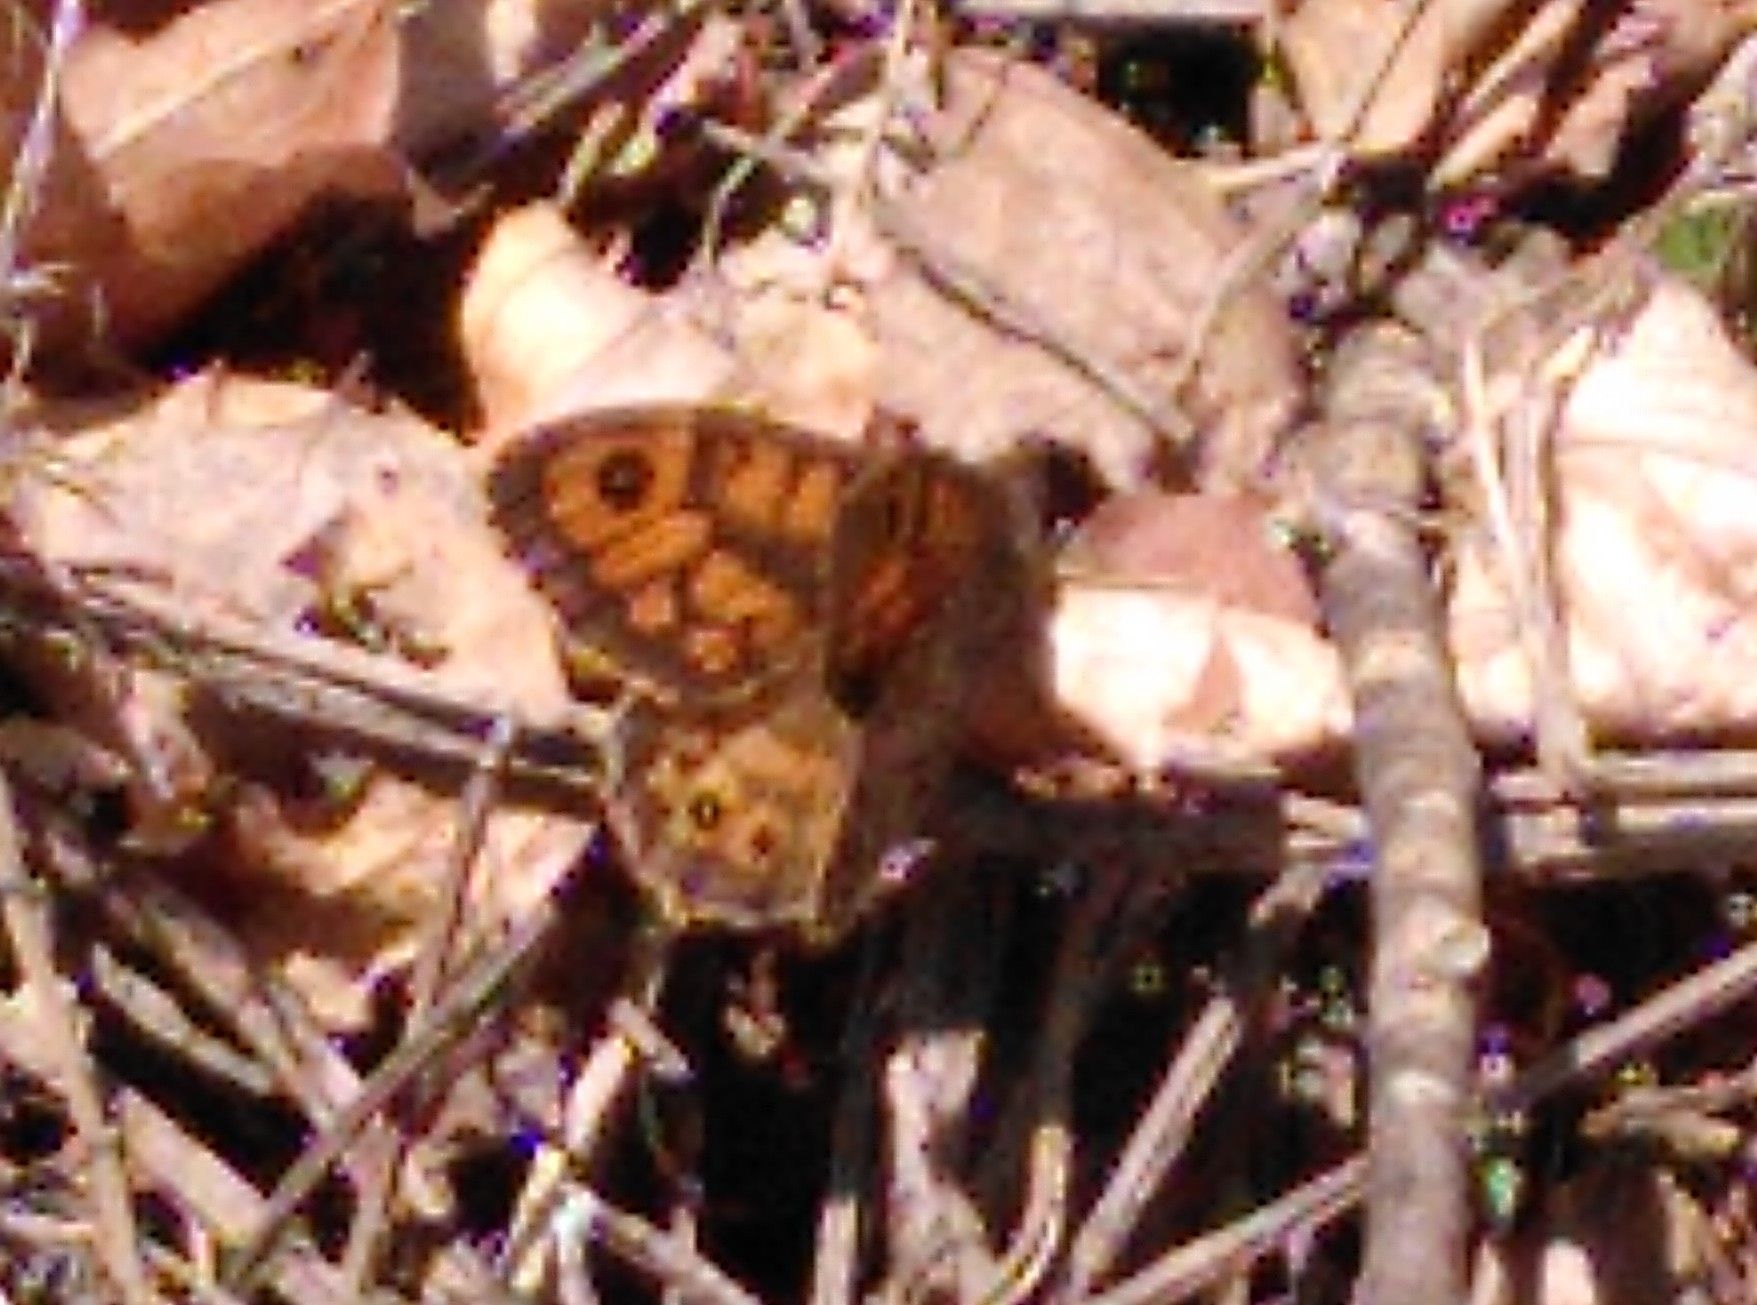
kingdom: Animalia
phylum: Arthropoda
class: Insecta
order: Lepidoptera
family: Nymphalidae
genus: Pararge
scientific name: Pararge Lasiommata megera
